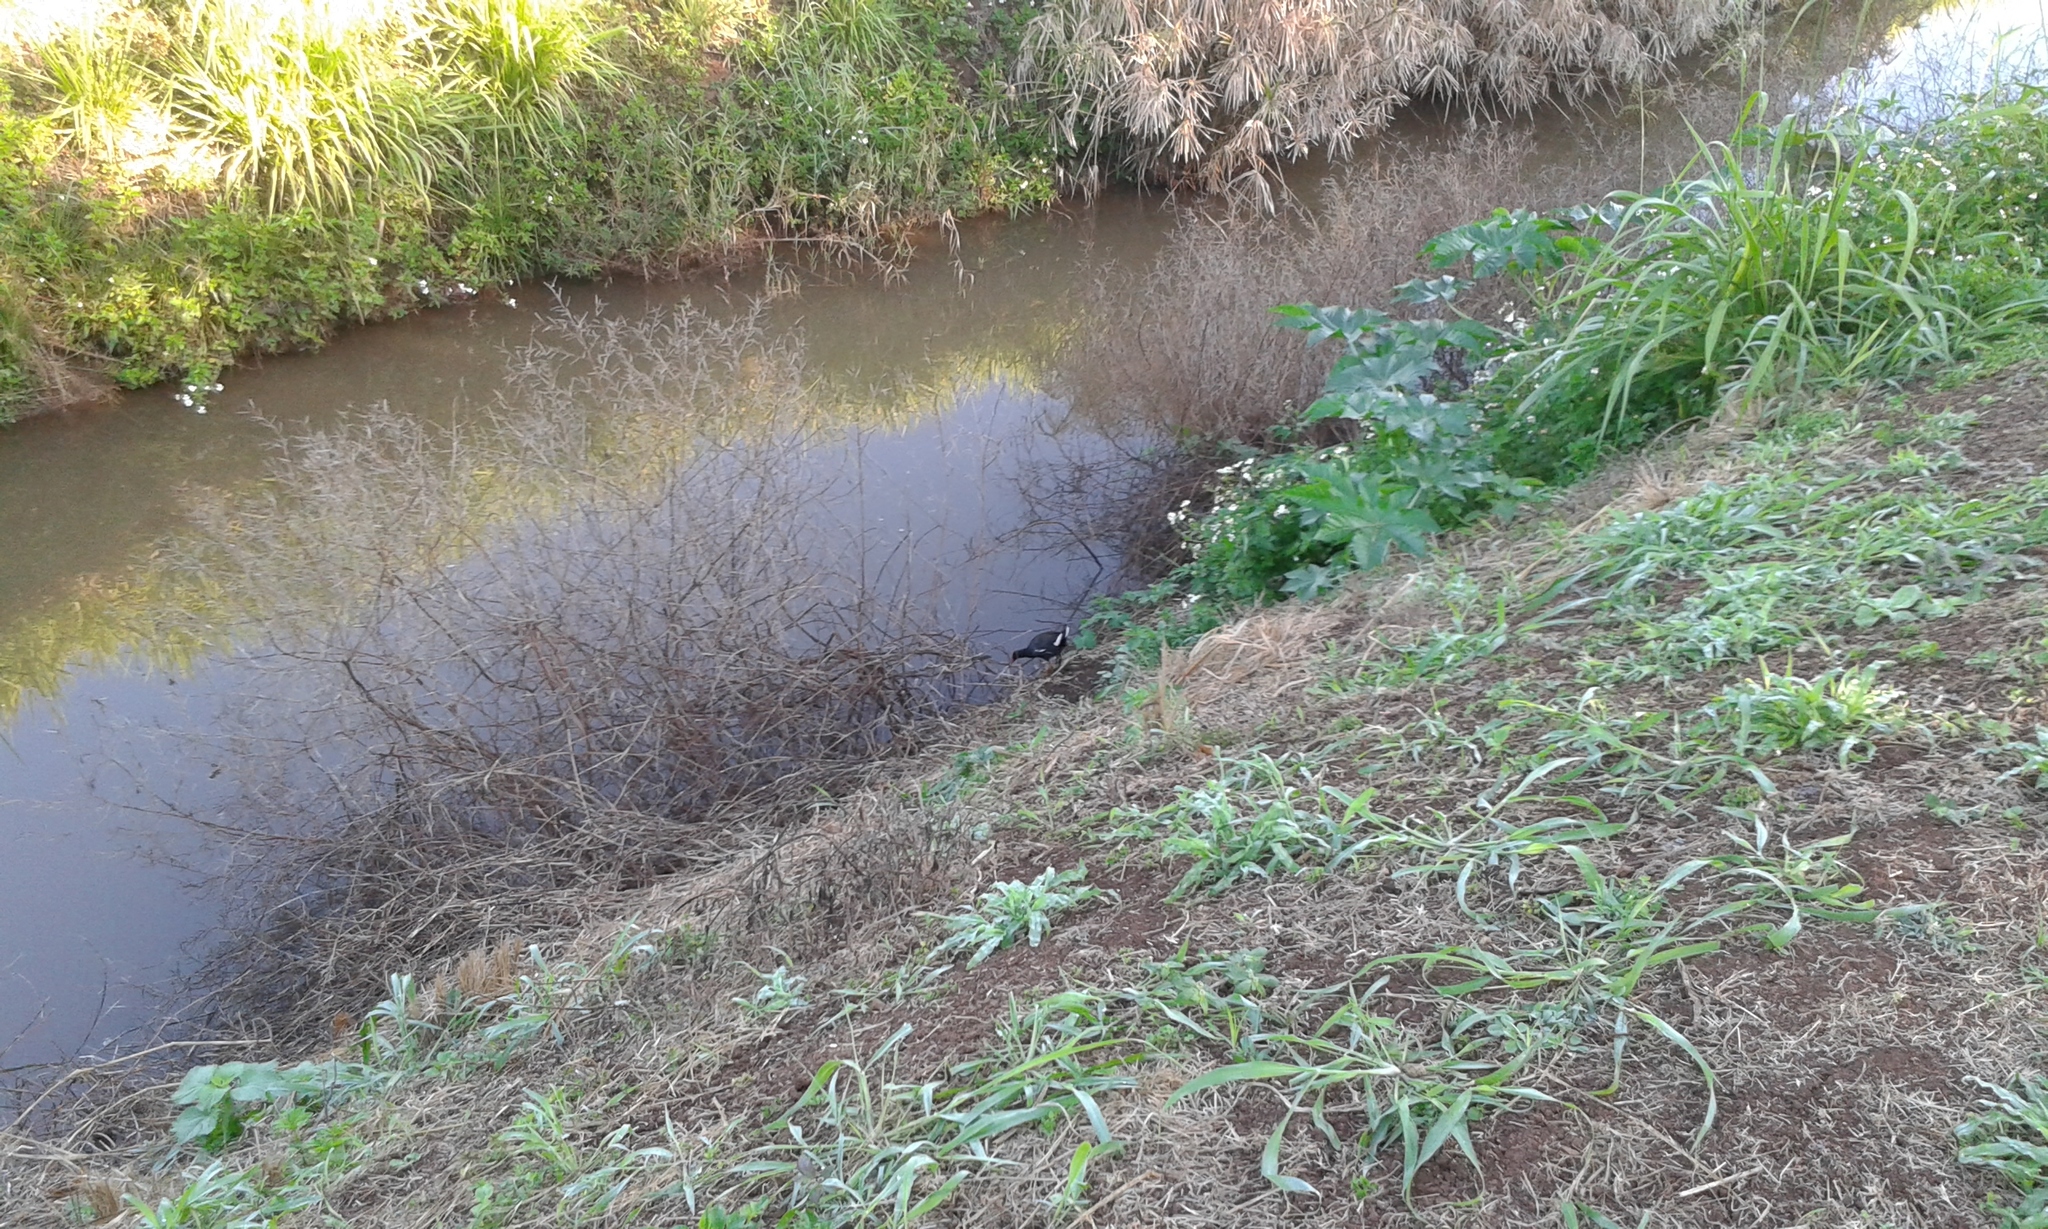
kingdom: Animalia
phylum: Chordata
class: Aves
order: Gruiformes
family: Rallidae
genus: Gallinula
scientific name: Gallinula chloropus
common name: Common moorhen
